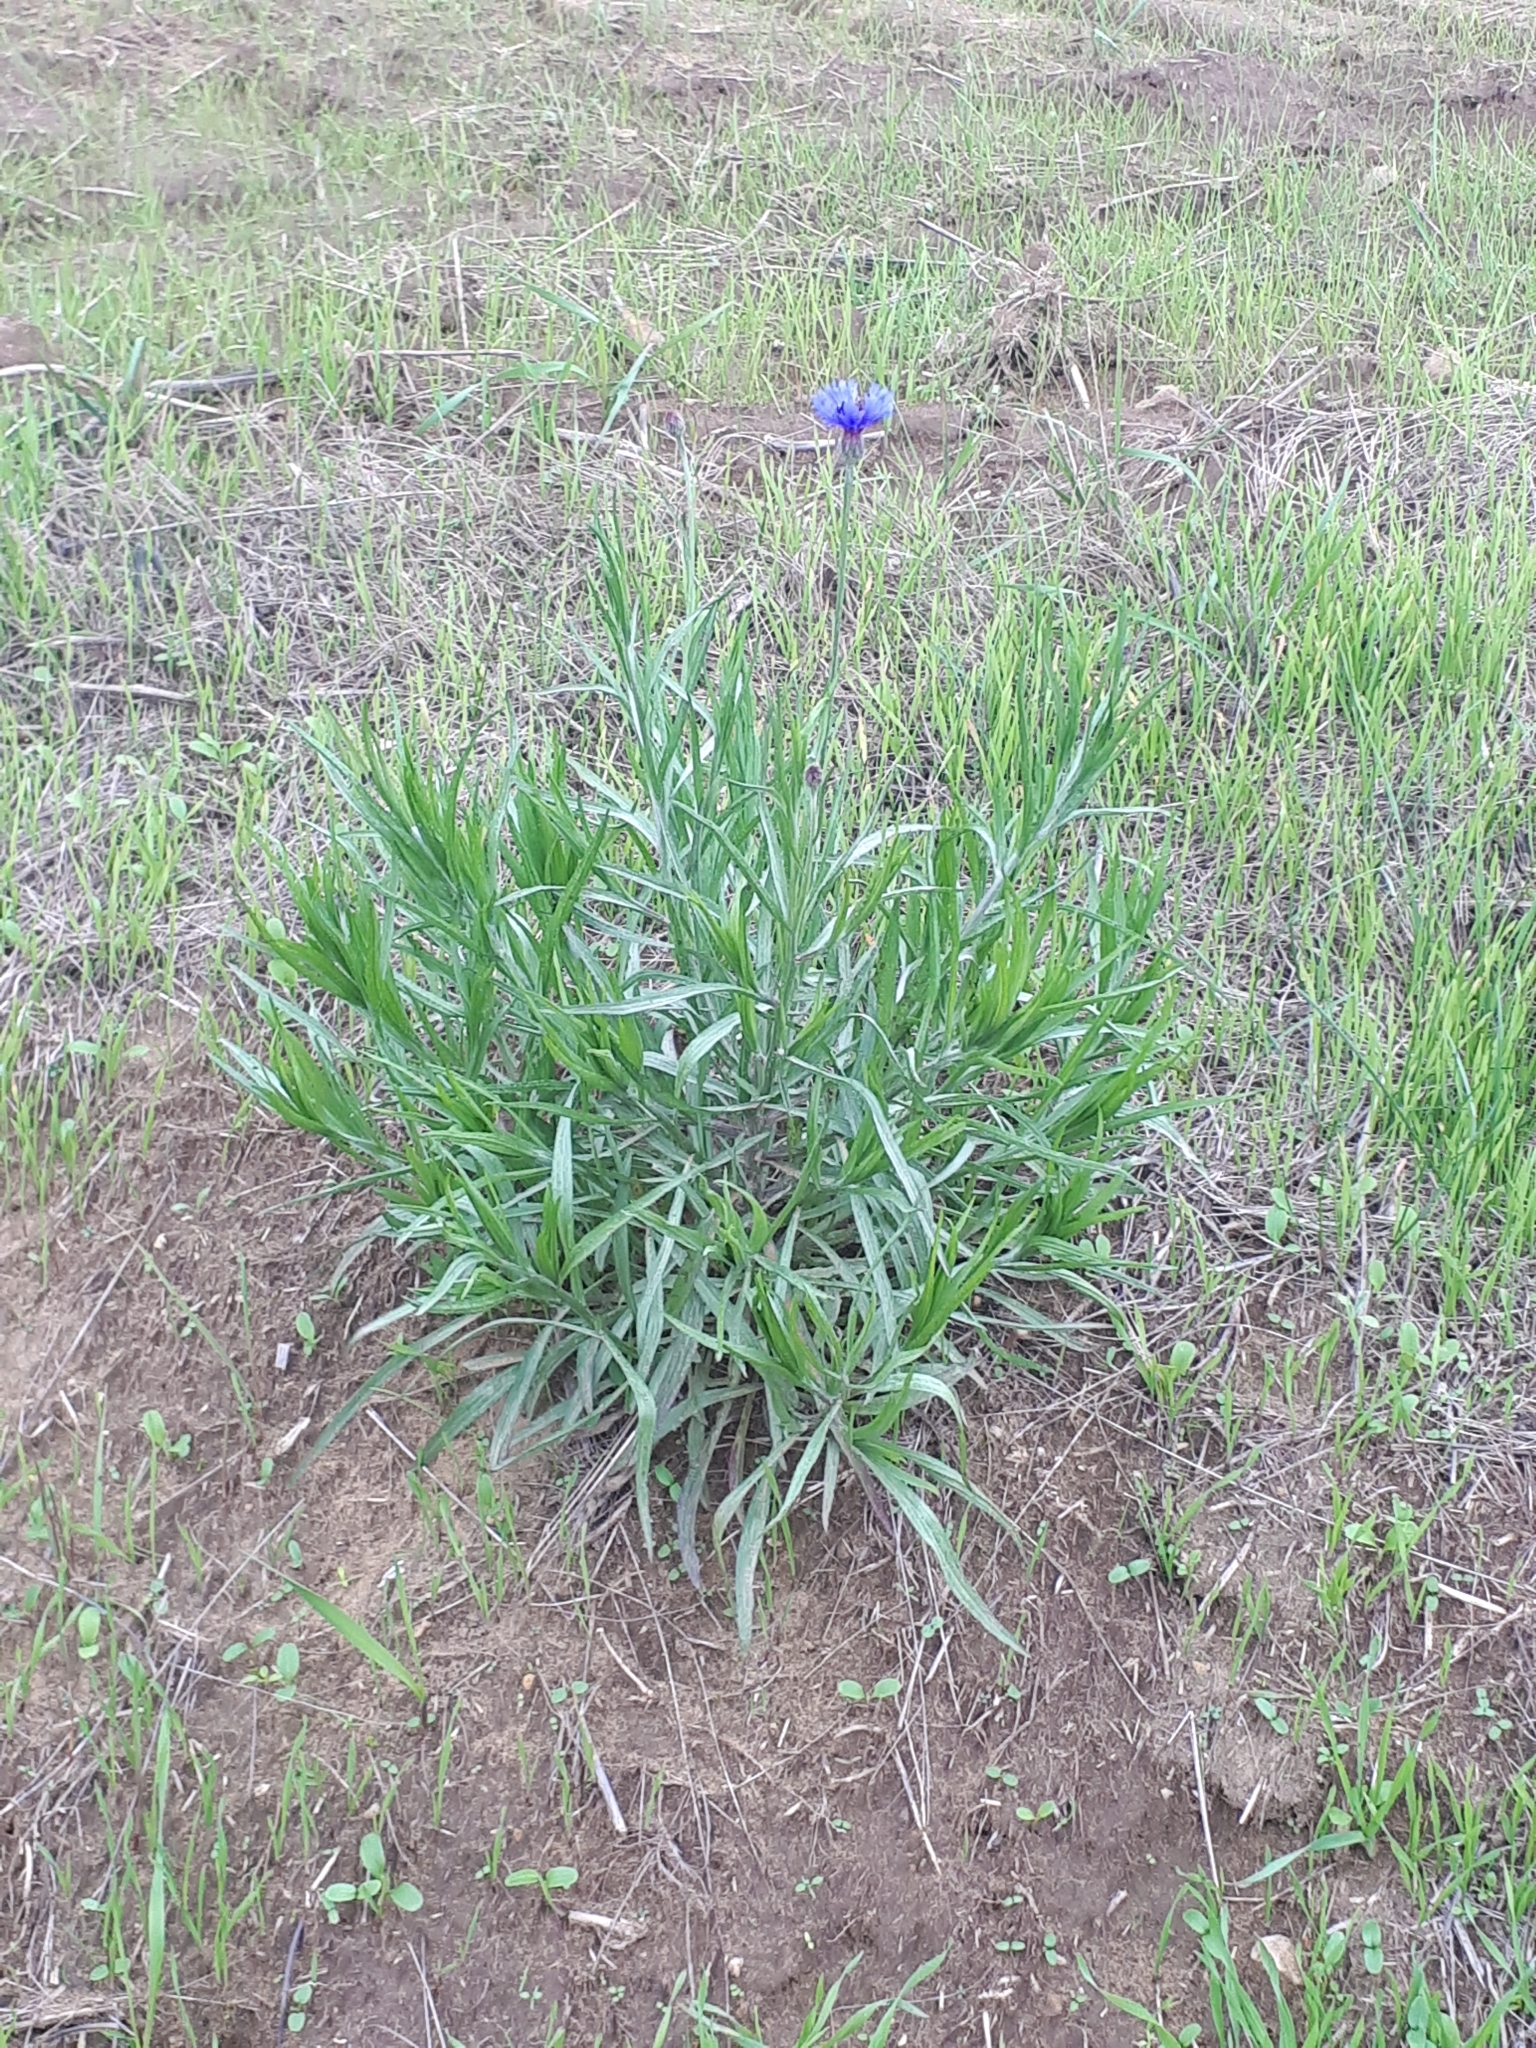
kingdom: Plantae
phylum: Tracheophyta
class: Magnoliopsida
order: Asterales
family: Asteraceae
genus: Centaurea
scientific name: Centaurea cyanus
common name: Cornflower
